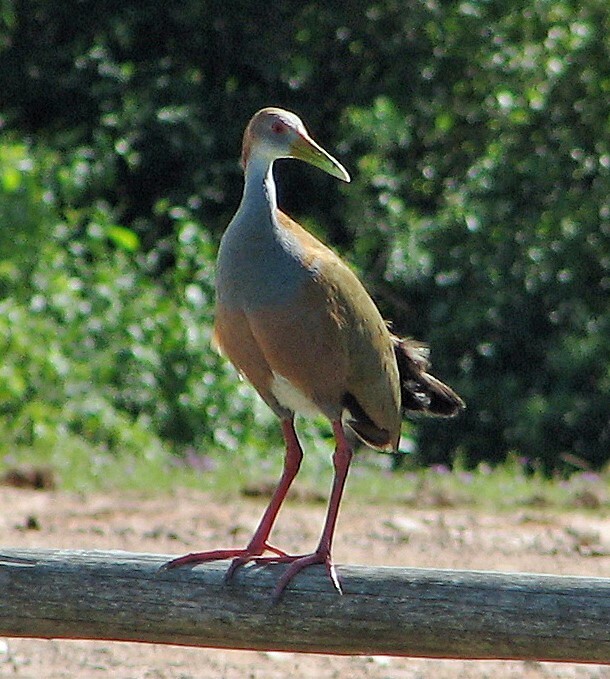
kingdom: Animalia
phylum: Chordata
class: Aves
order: Gruiformes
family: Rallidae
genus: Aramides
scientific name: Aramides ypecaha
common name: Giant wood rail
